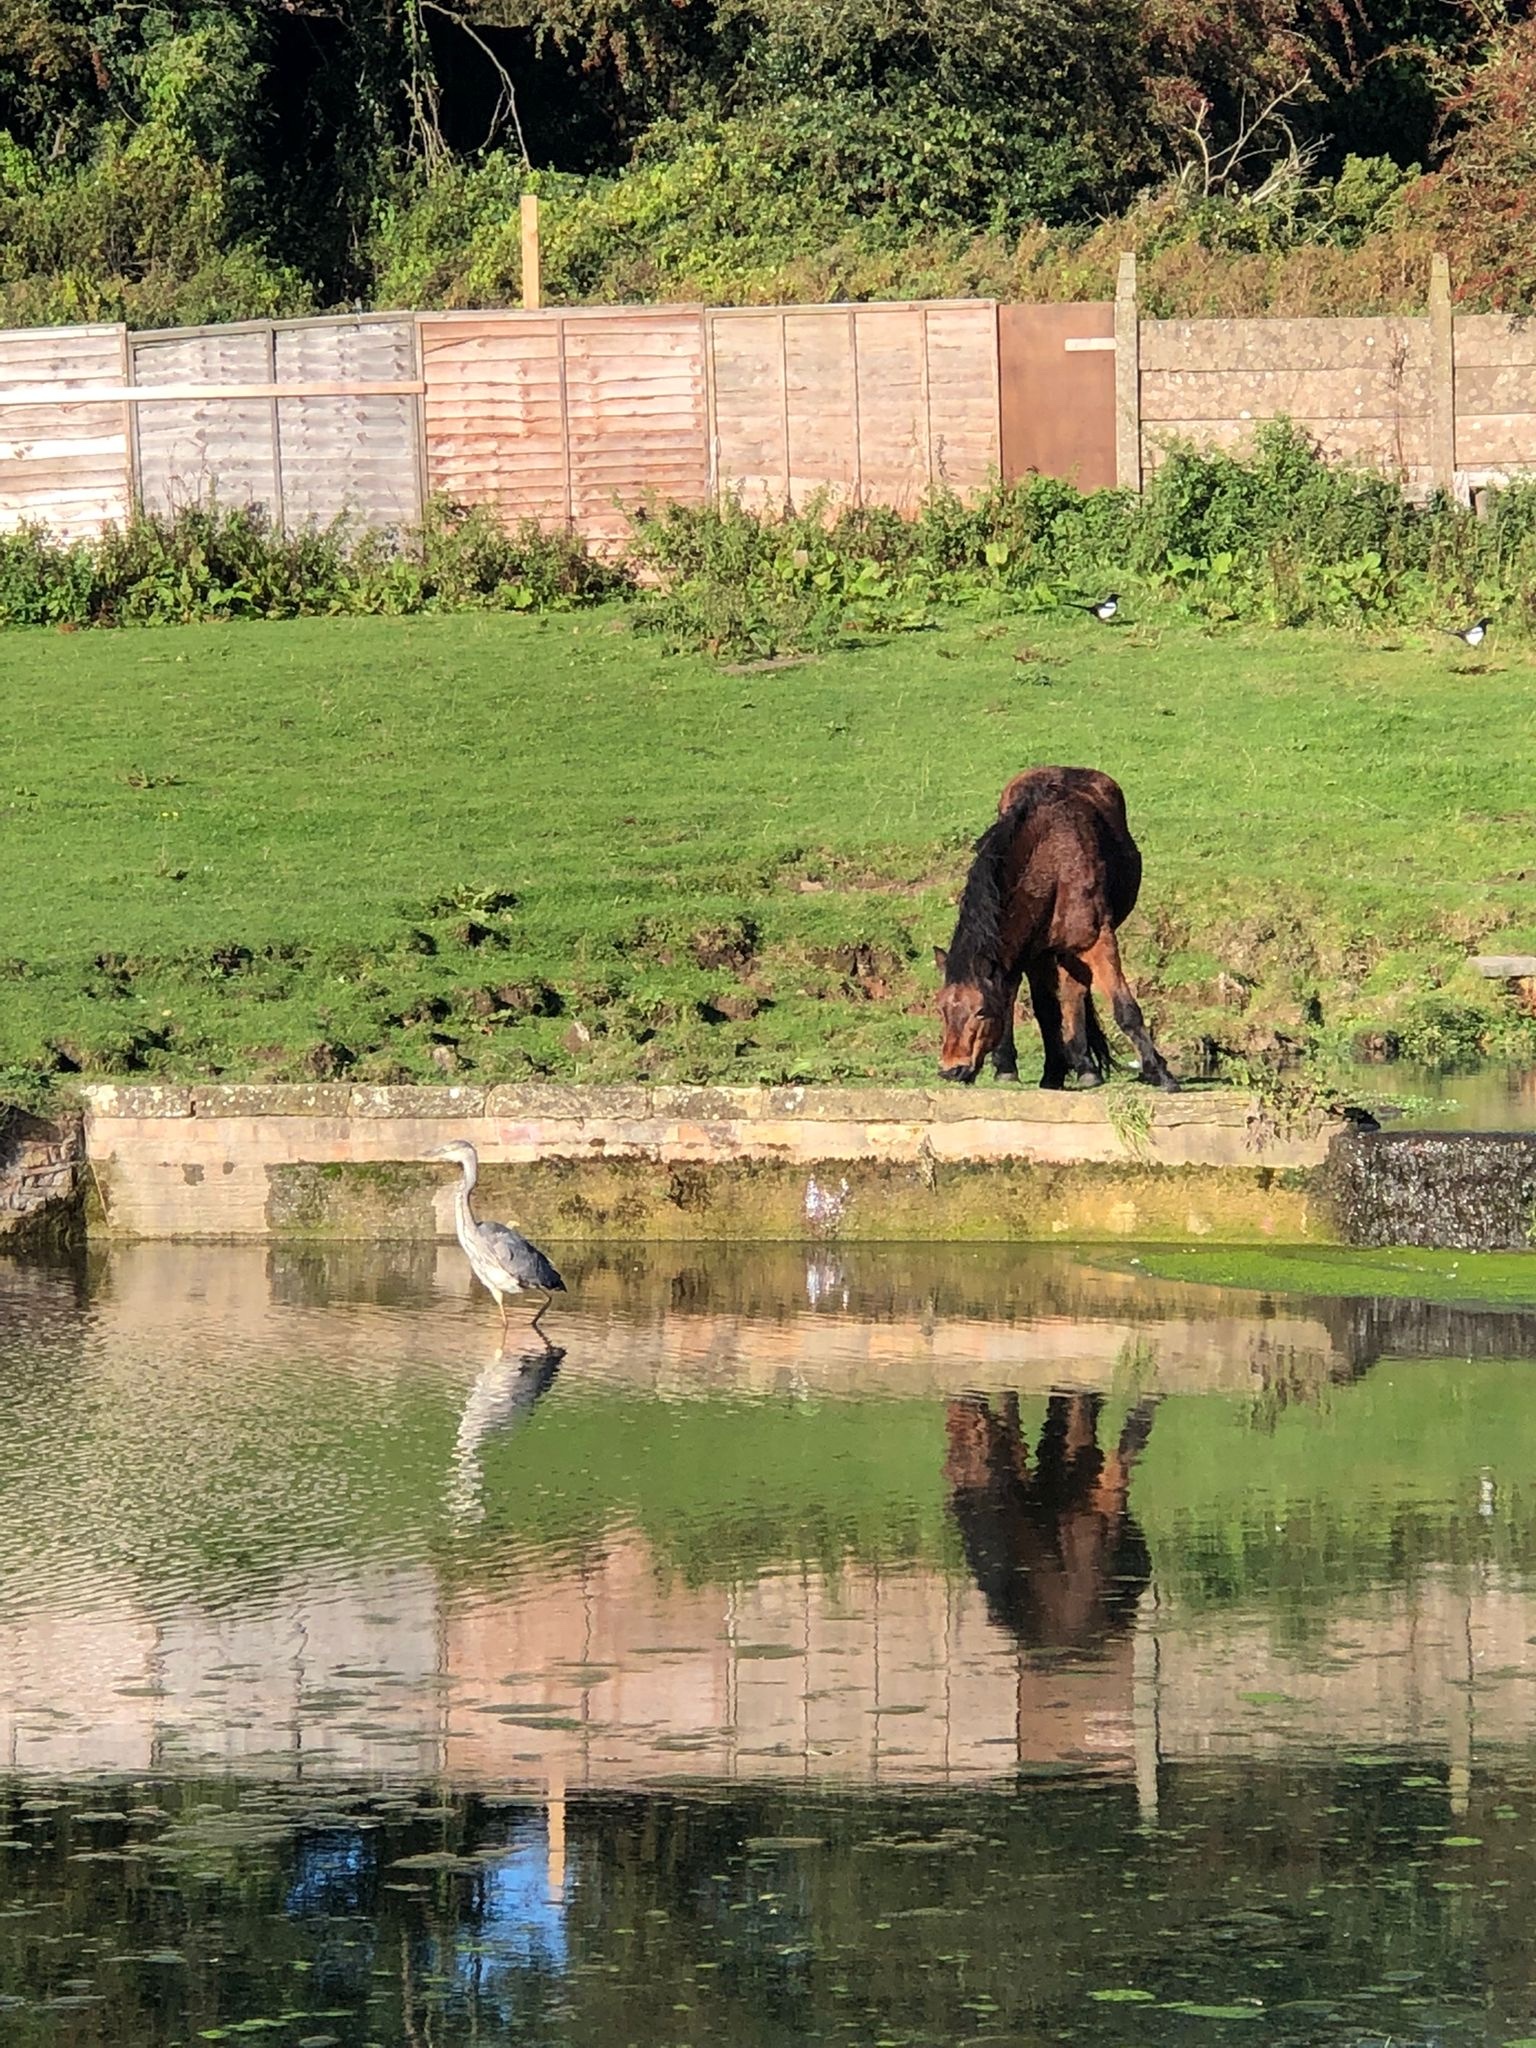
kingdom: Animalia
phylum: Chordata
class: Aves
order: Pelecaniformes
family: Ardeidae
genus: Ardea
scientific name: Ardea cinerea
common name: Grey heron
